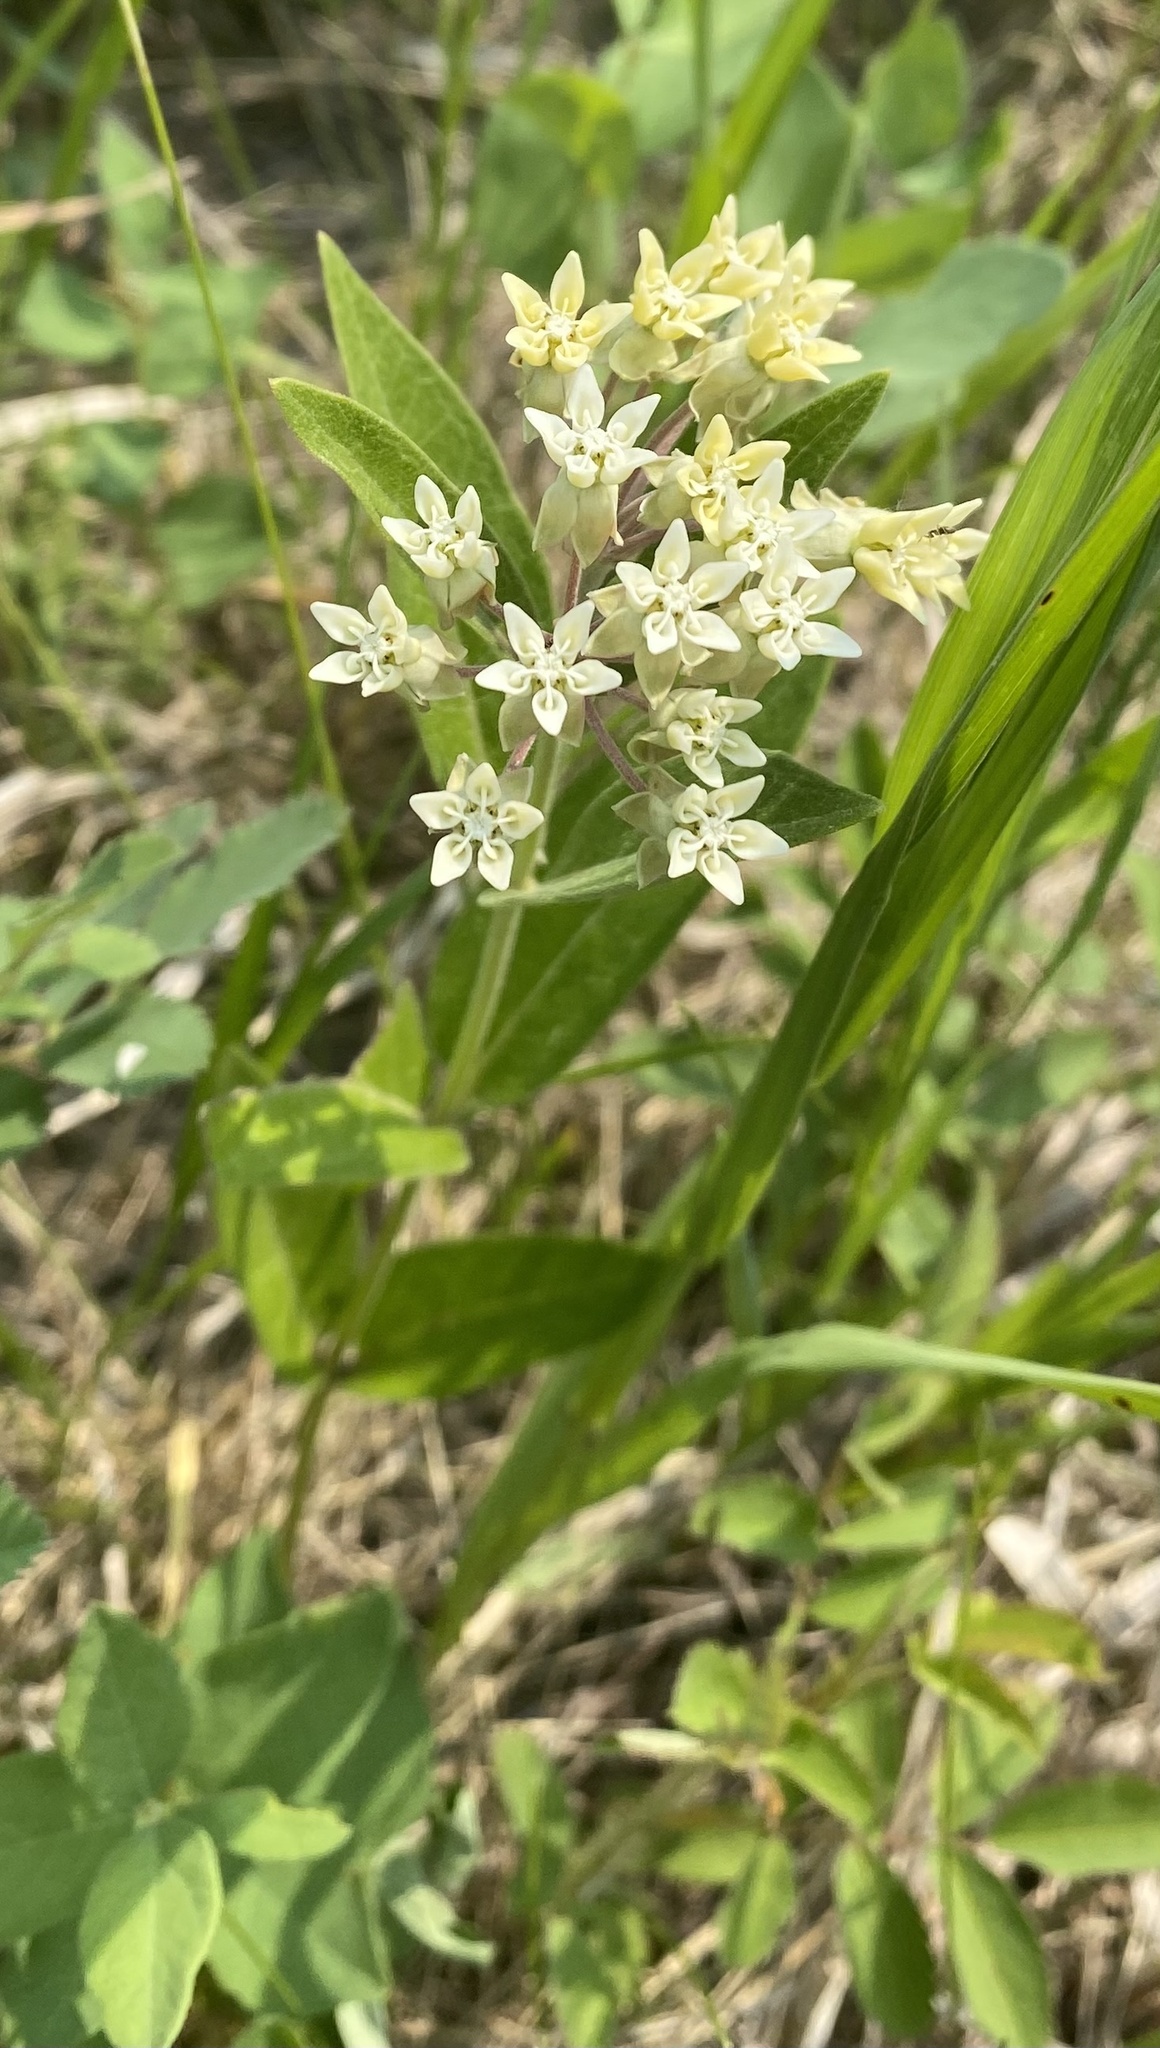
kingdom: Plantae
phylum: Tracheophyta
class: Magnoliopsida
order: Gentianales
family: Apocynaceae
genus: Asclepias
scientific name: Asclepias ovalifolia
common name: Dwarf milkweed
